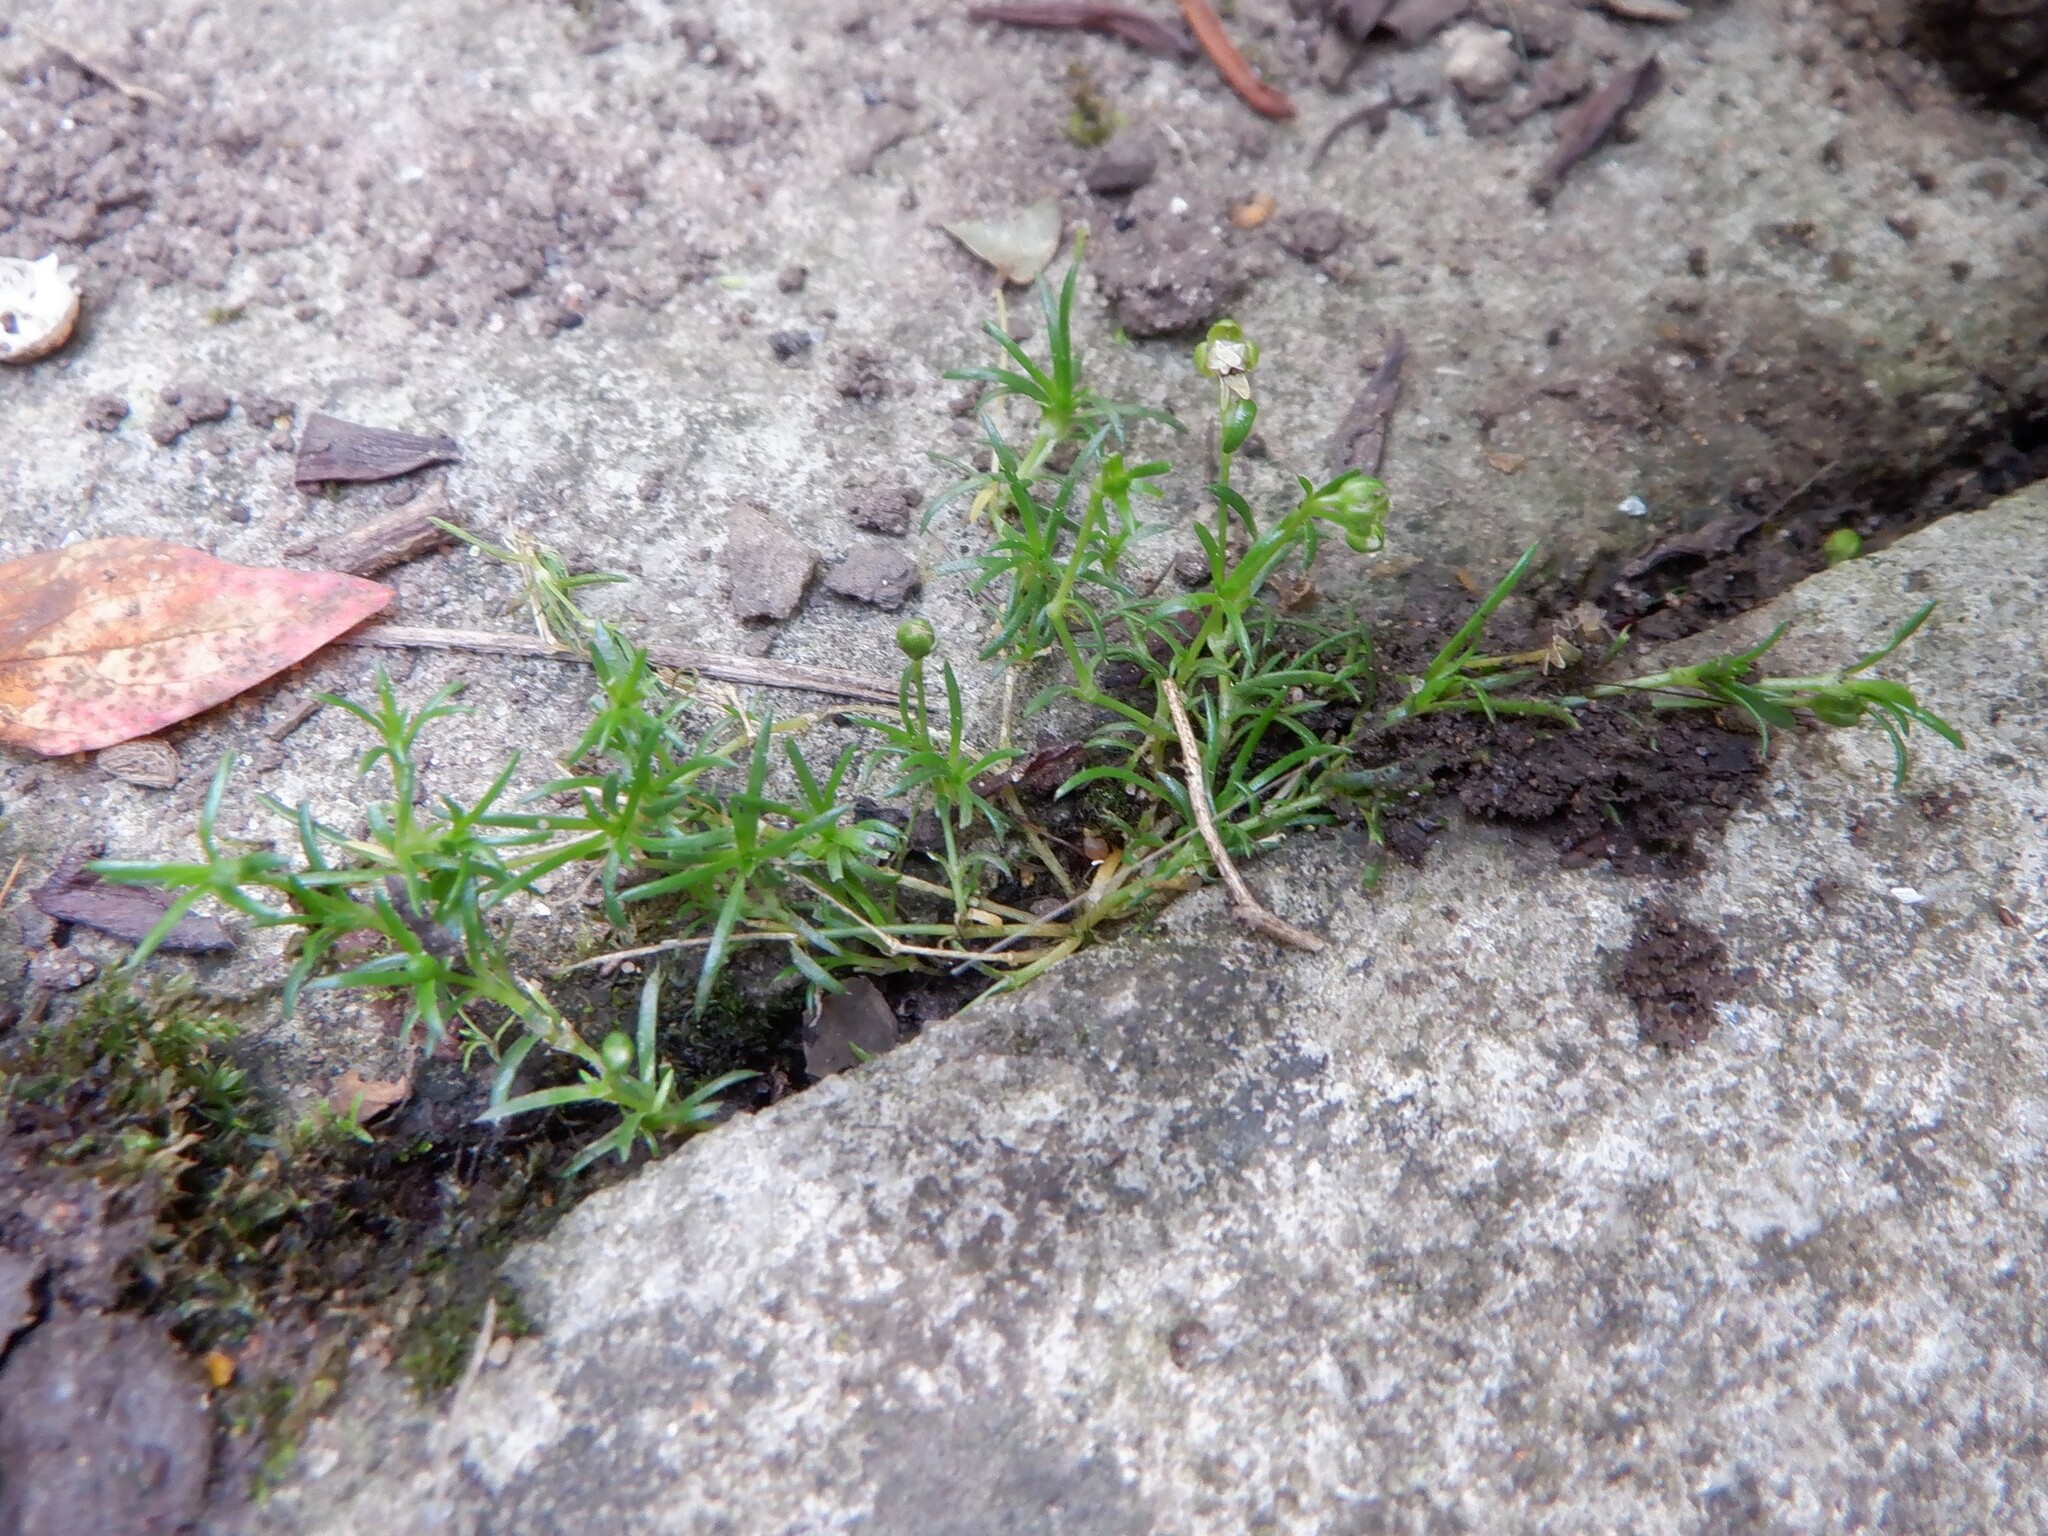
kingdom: Plantae
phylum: Tracheophyta
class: Magnoliopsida
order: Caryophyllales
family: Caryophyllaceae
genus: Sagina
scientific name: Sagina procumbens
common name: Procumbent pearlwort
